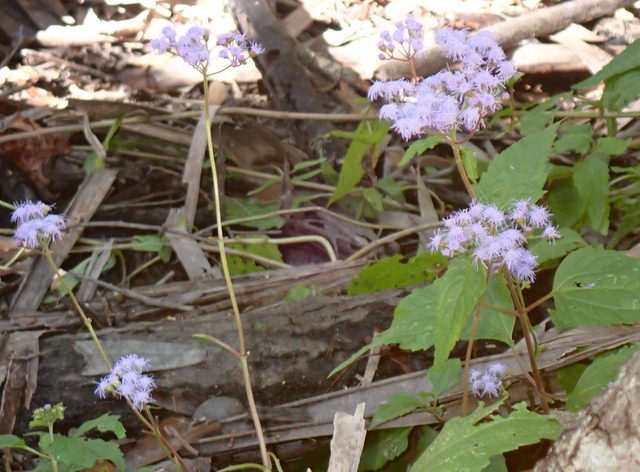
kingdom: Plantae
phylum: Tracheophyta
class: Magnoliopsida
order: Asterales
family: Asteraceae
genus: Conoclinium
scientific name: Conoclinium coelestinum
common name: Blue mistflower
